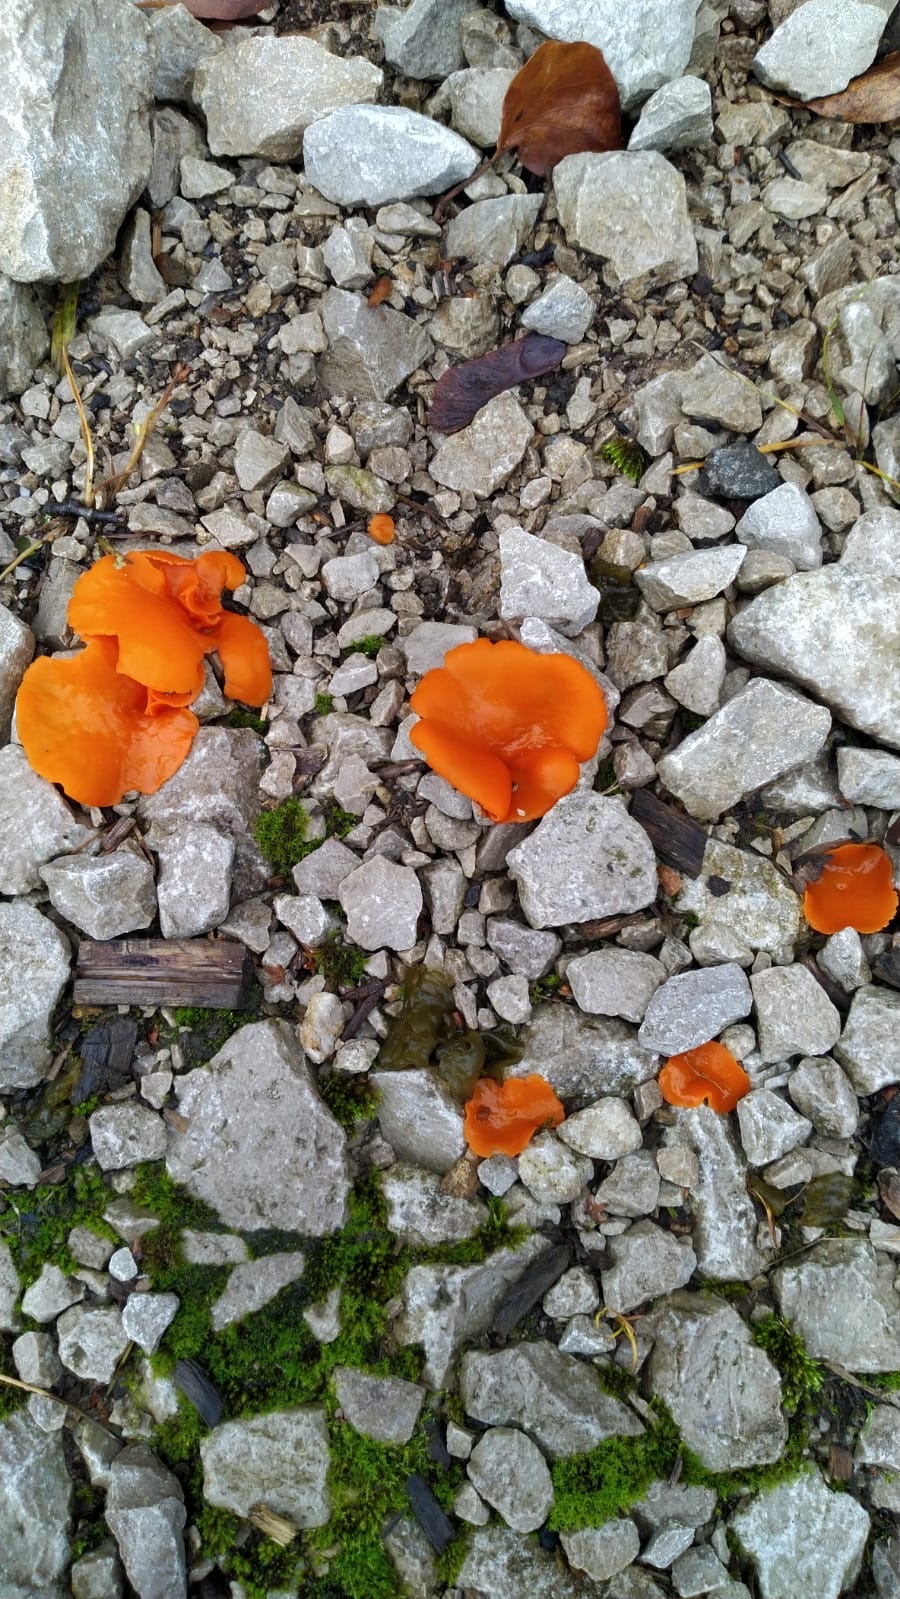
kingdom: Fungi
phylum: Ascomycota
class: Pezizomycetes
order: Pezizales
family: Pyronemataceae
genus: Aleuria
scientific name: Aleuria aurantia
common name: Orange peel fungus
